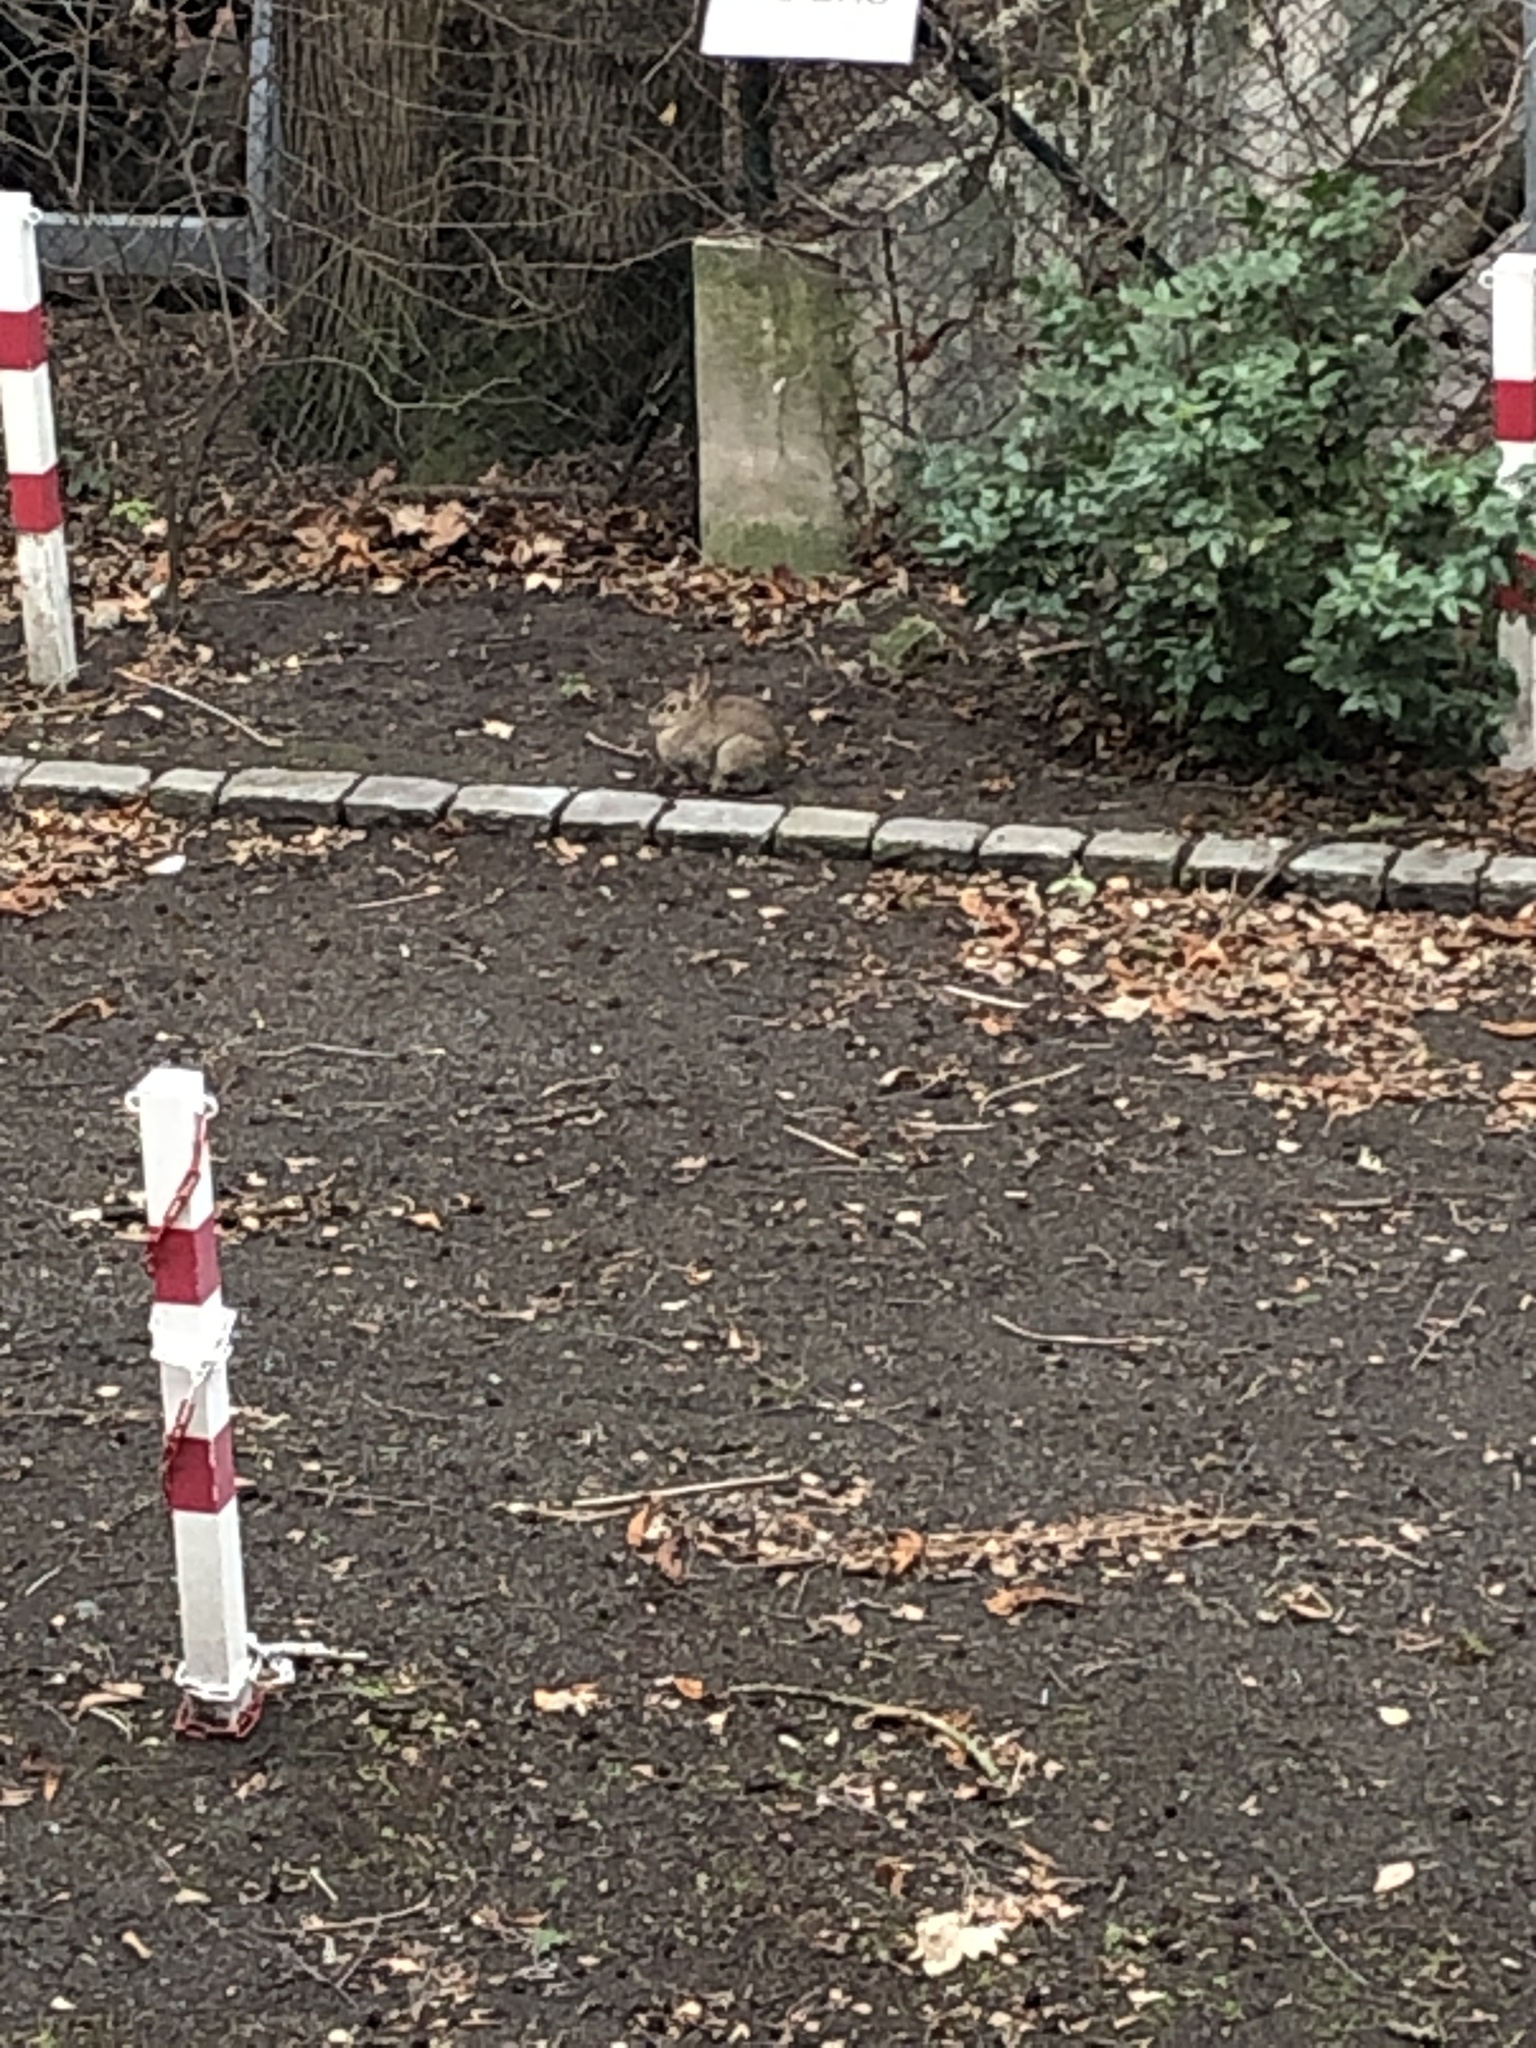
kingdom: Animalia
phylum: Chordata
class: Mammalia
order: Lagomorpha
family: Leporidae
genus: Oryctolagus
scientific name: Oryctolagus cuniculus
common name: European rabbit
